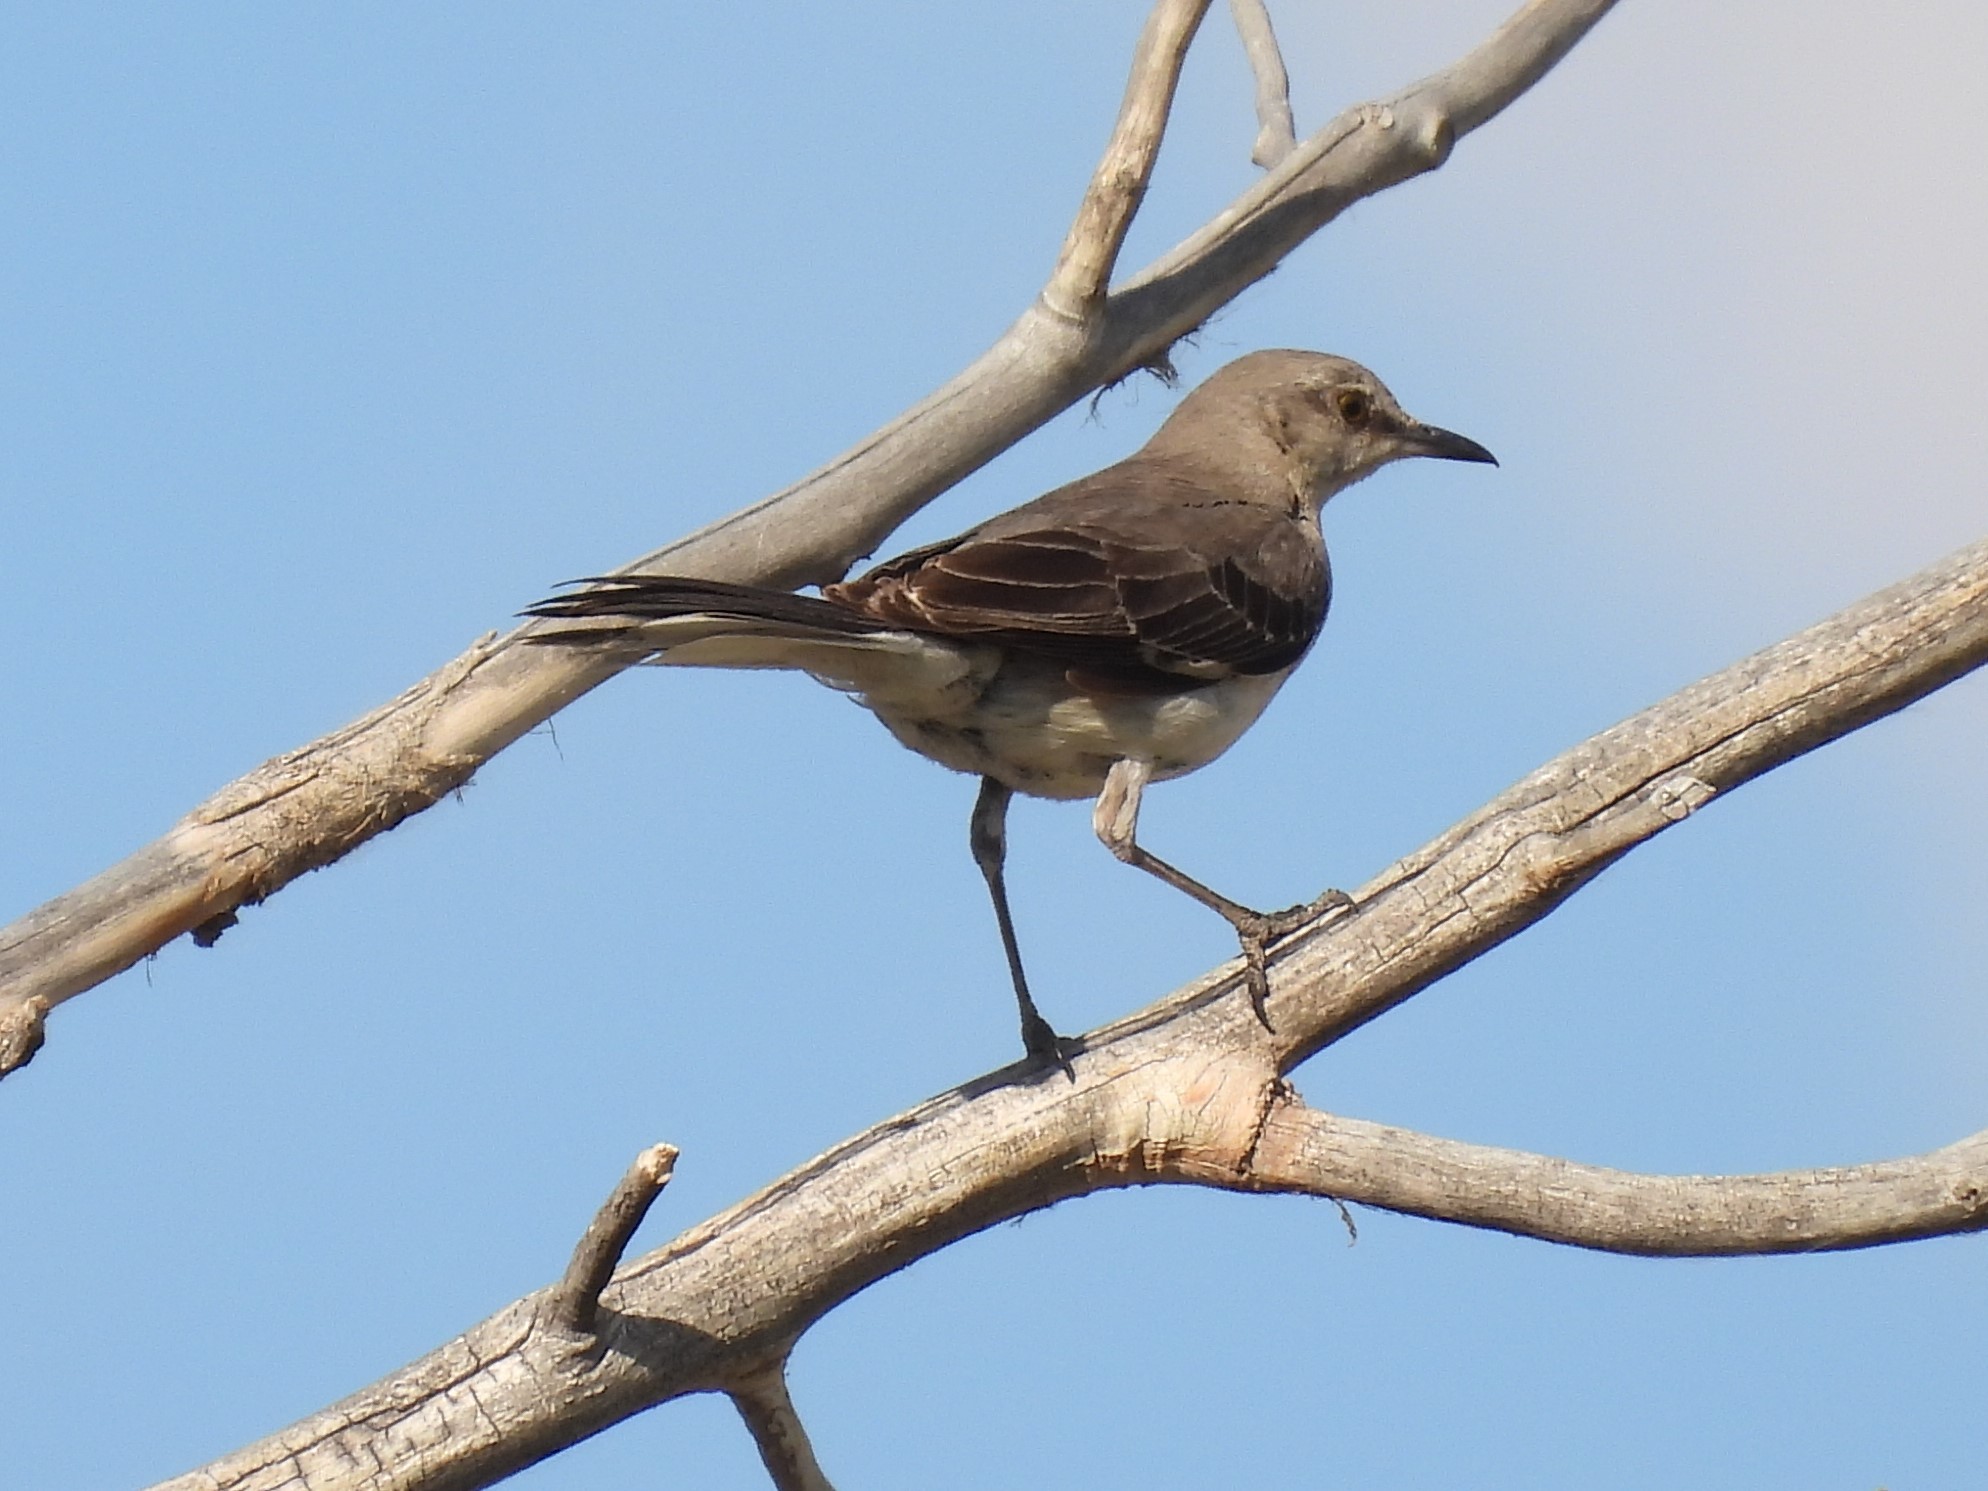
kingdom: Animalia
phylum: Chordata
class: Aves
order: Passeriformes
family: Mimidae
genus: Mimus
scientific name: Mimus polyglottos
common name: Northern mockingbird
